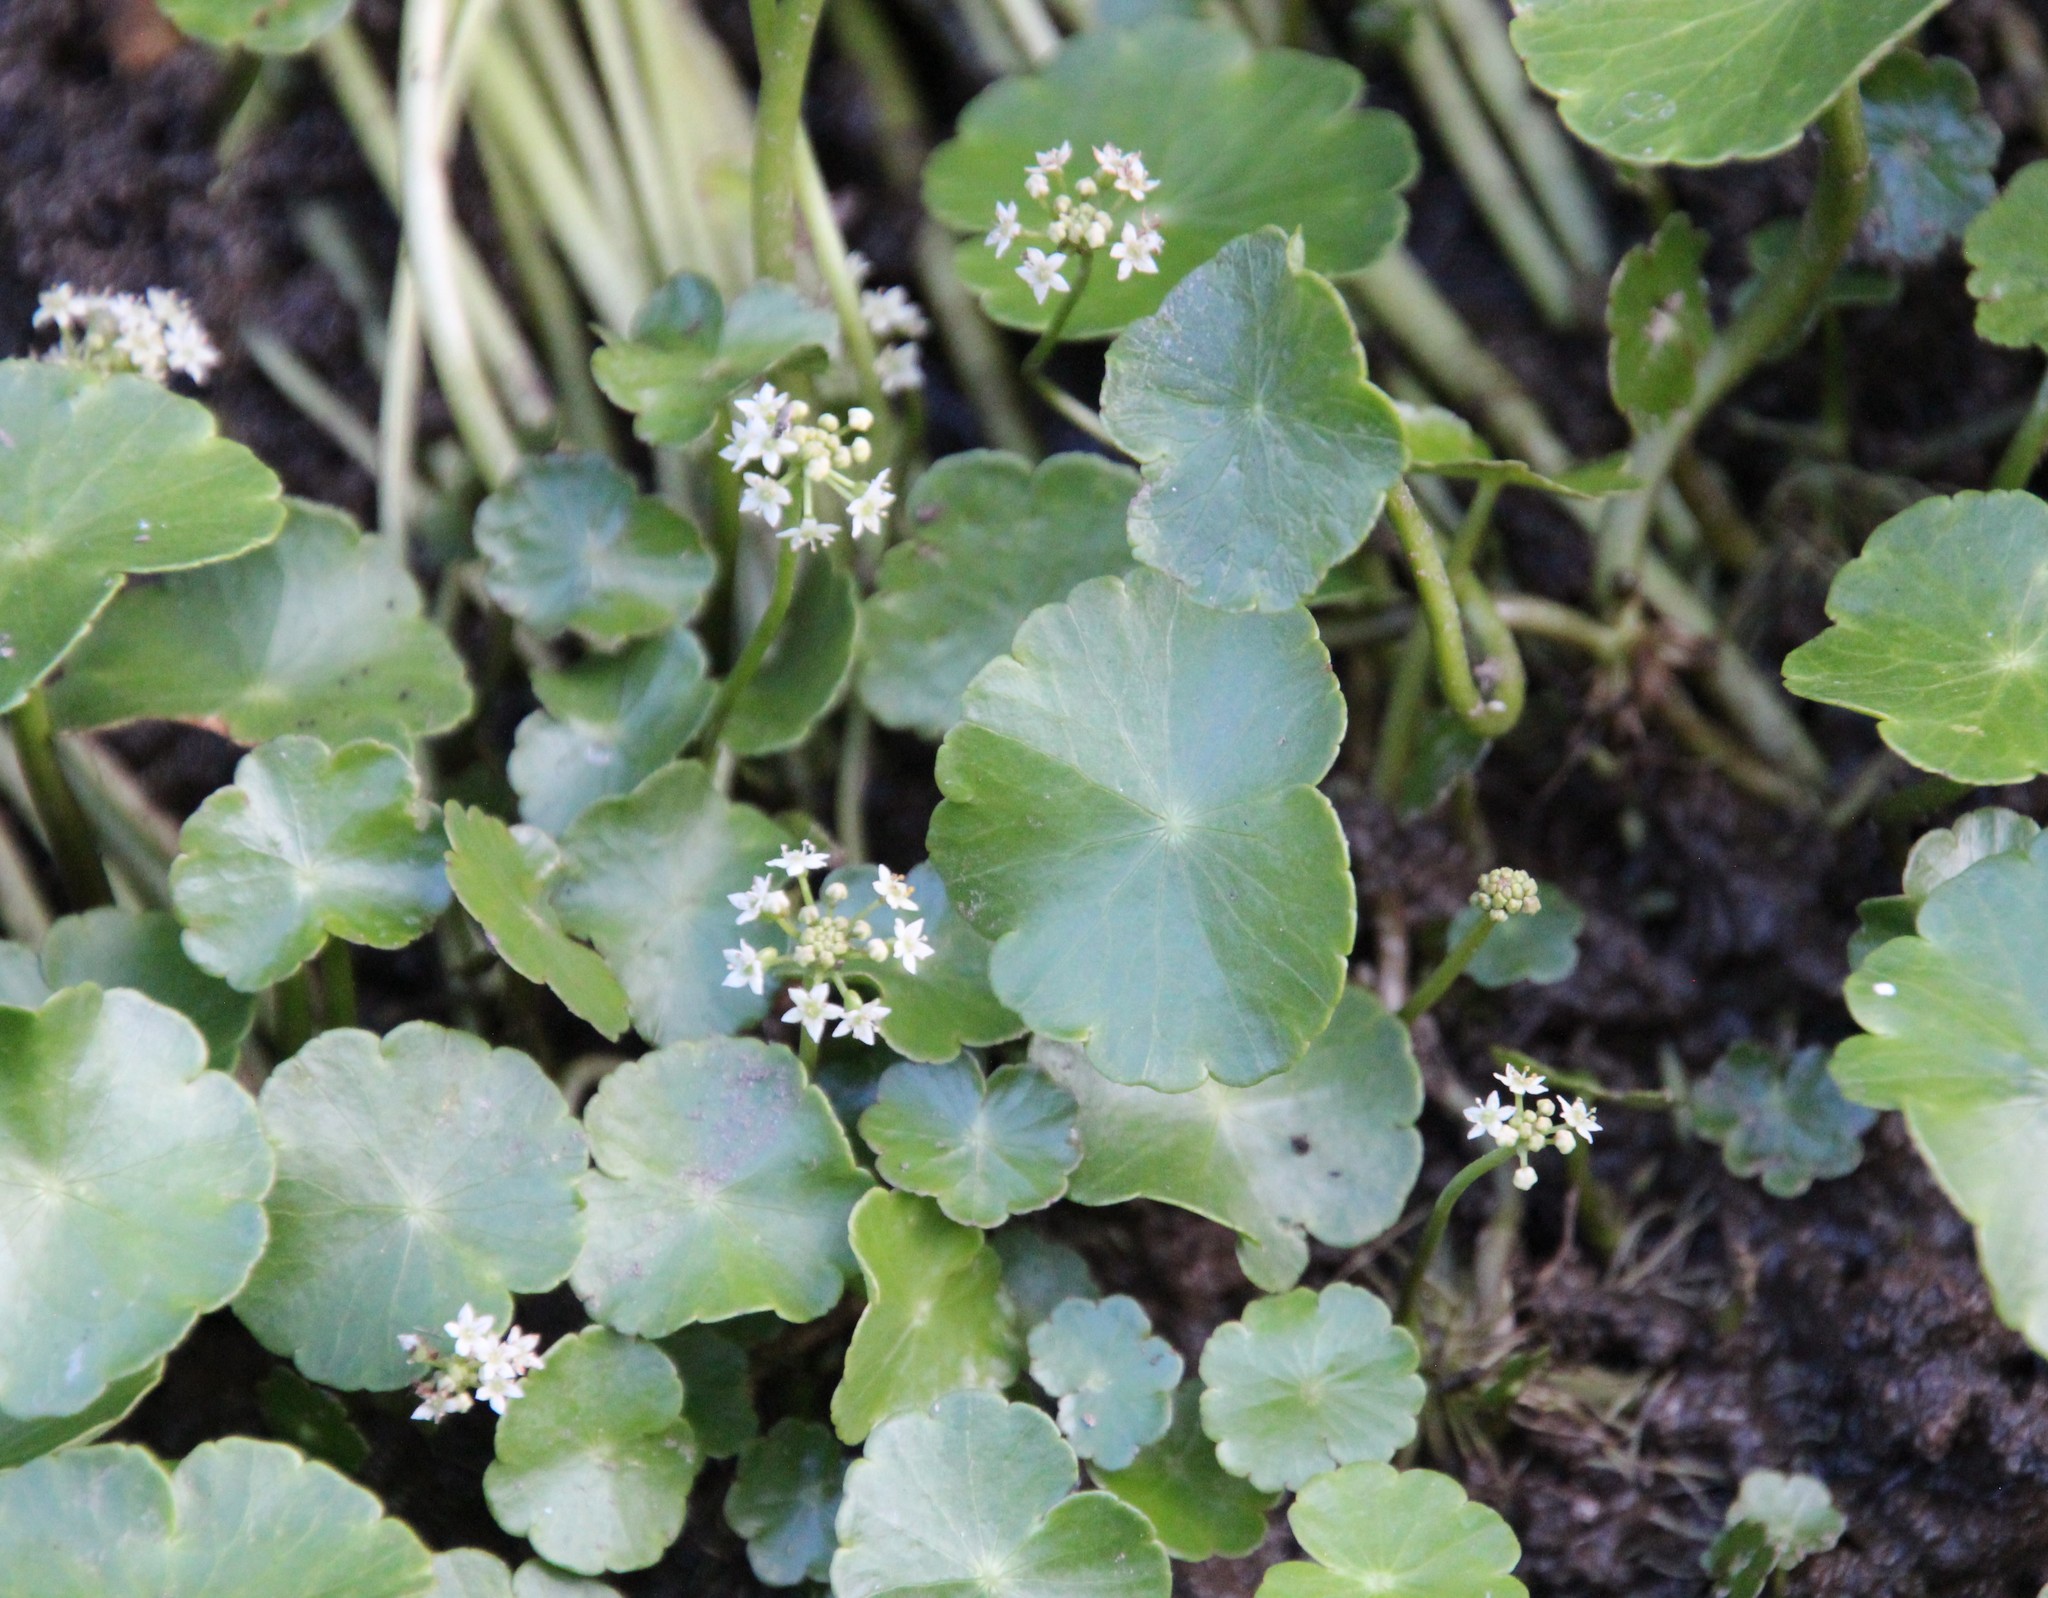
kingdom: Plantae
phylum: Tracheophyta
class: Magnoliopsida
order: Apiales
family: Araliaceae
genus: Hydrocotyle
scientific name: Hydrocotyle umbellata
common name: Water pennywort
